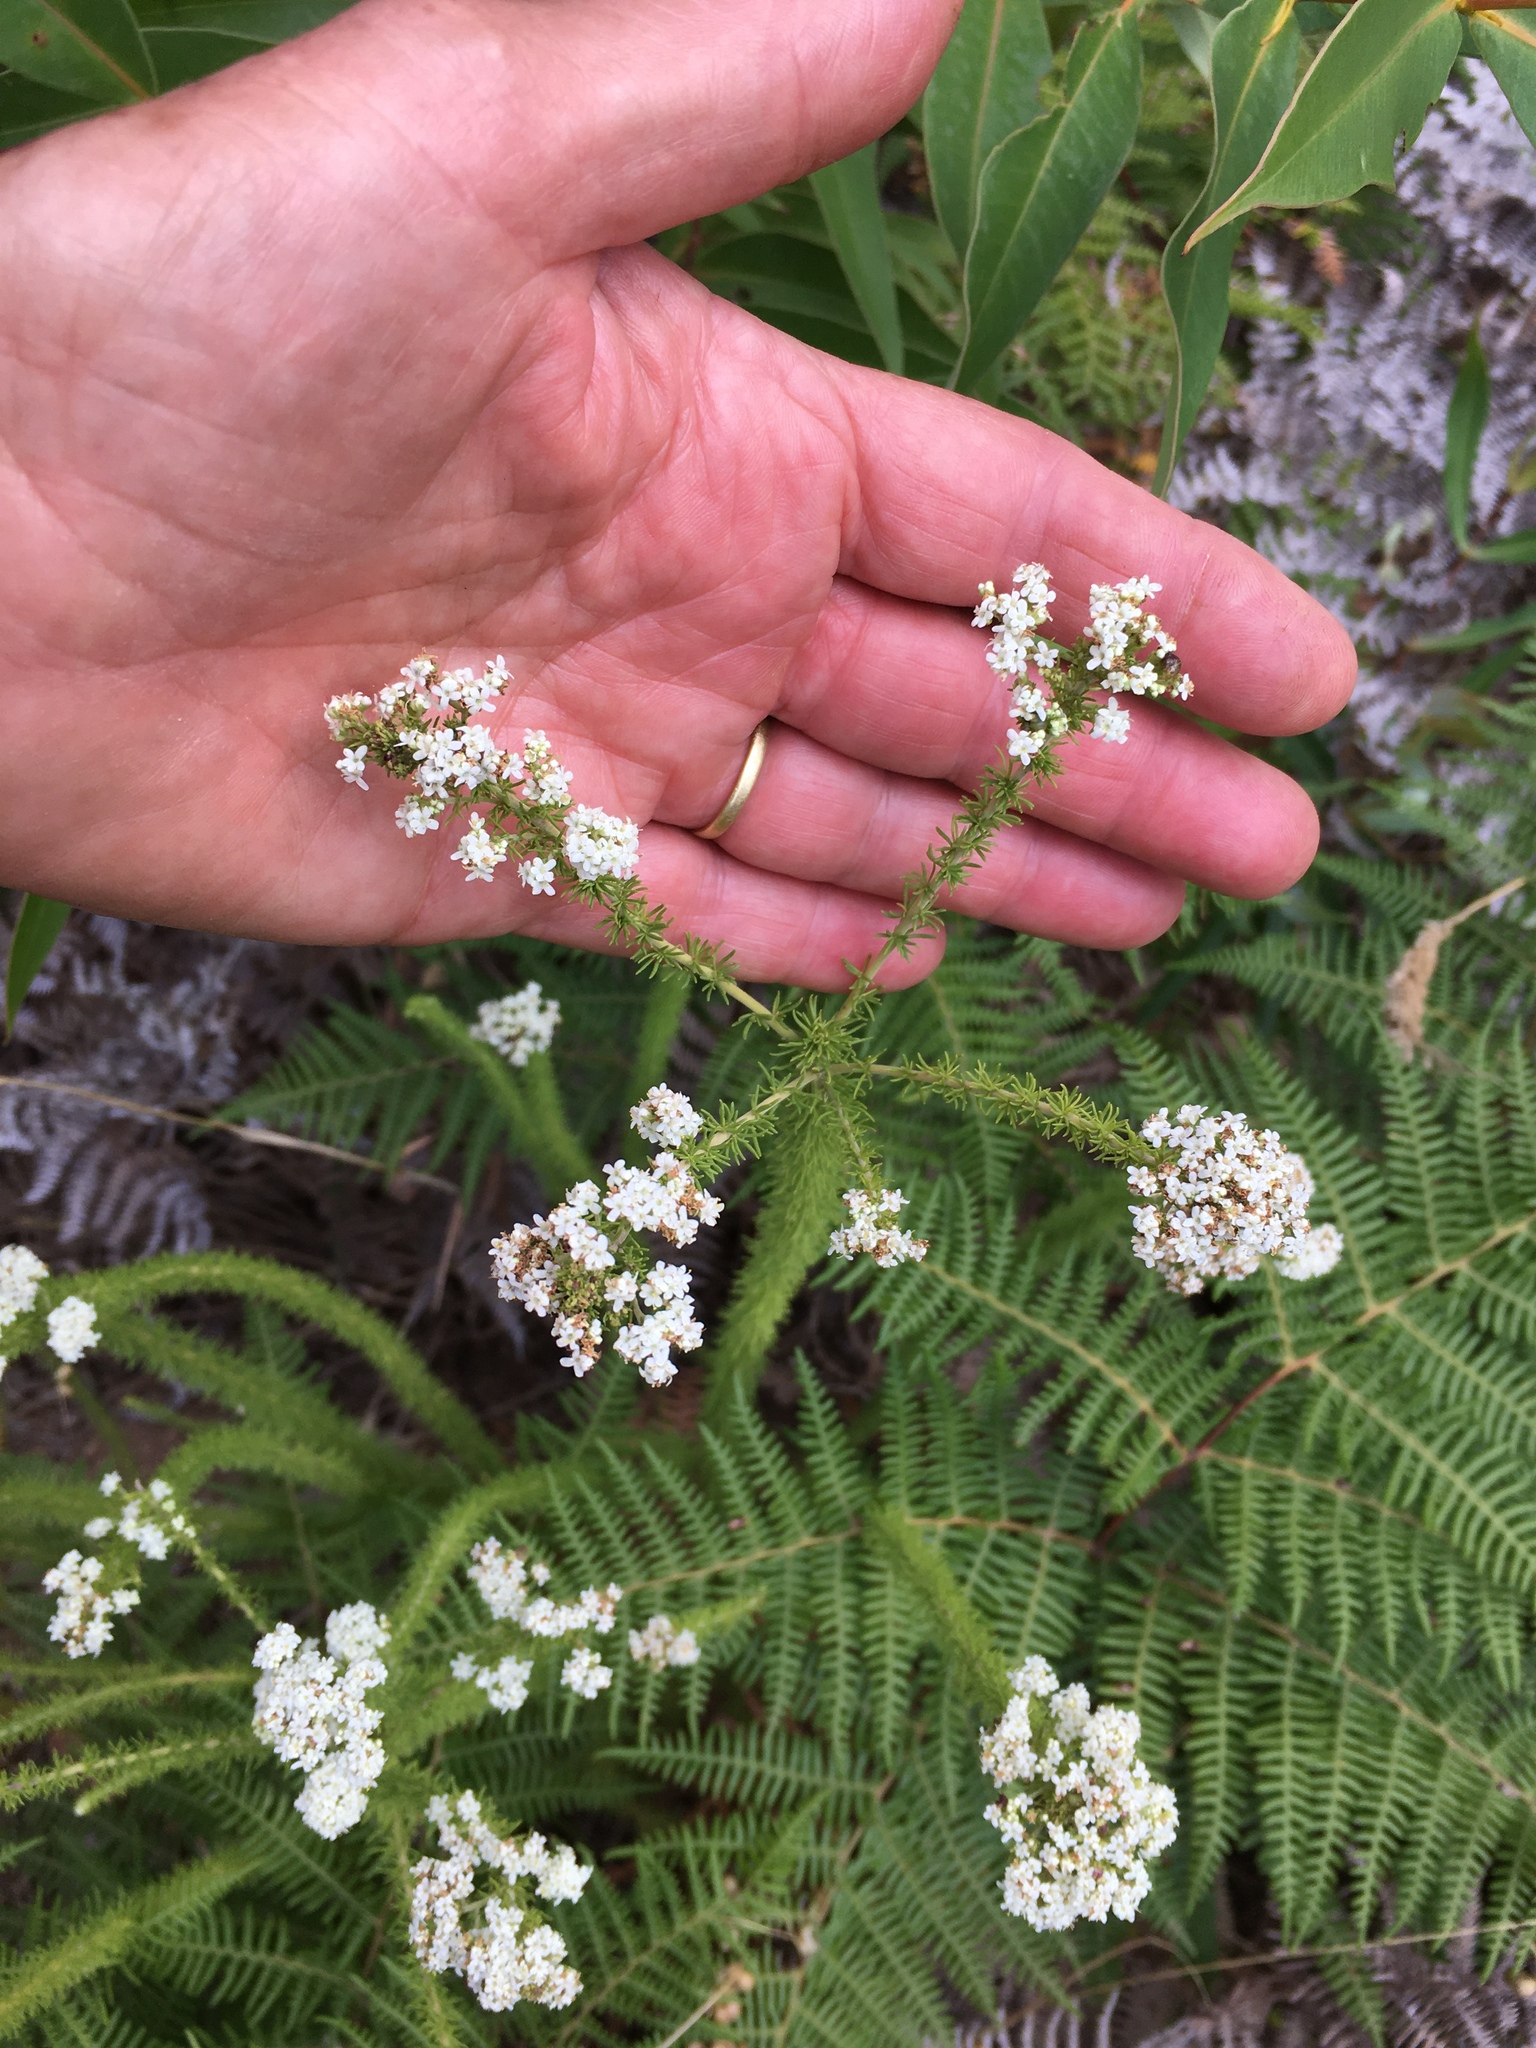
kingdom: Plantae
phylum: Tracheophyta
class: Magnoliopsida
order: Lamiales
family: Scrophulariaceae
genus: Selago
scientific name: Selago corymbosa
